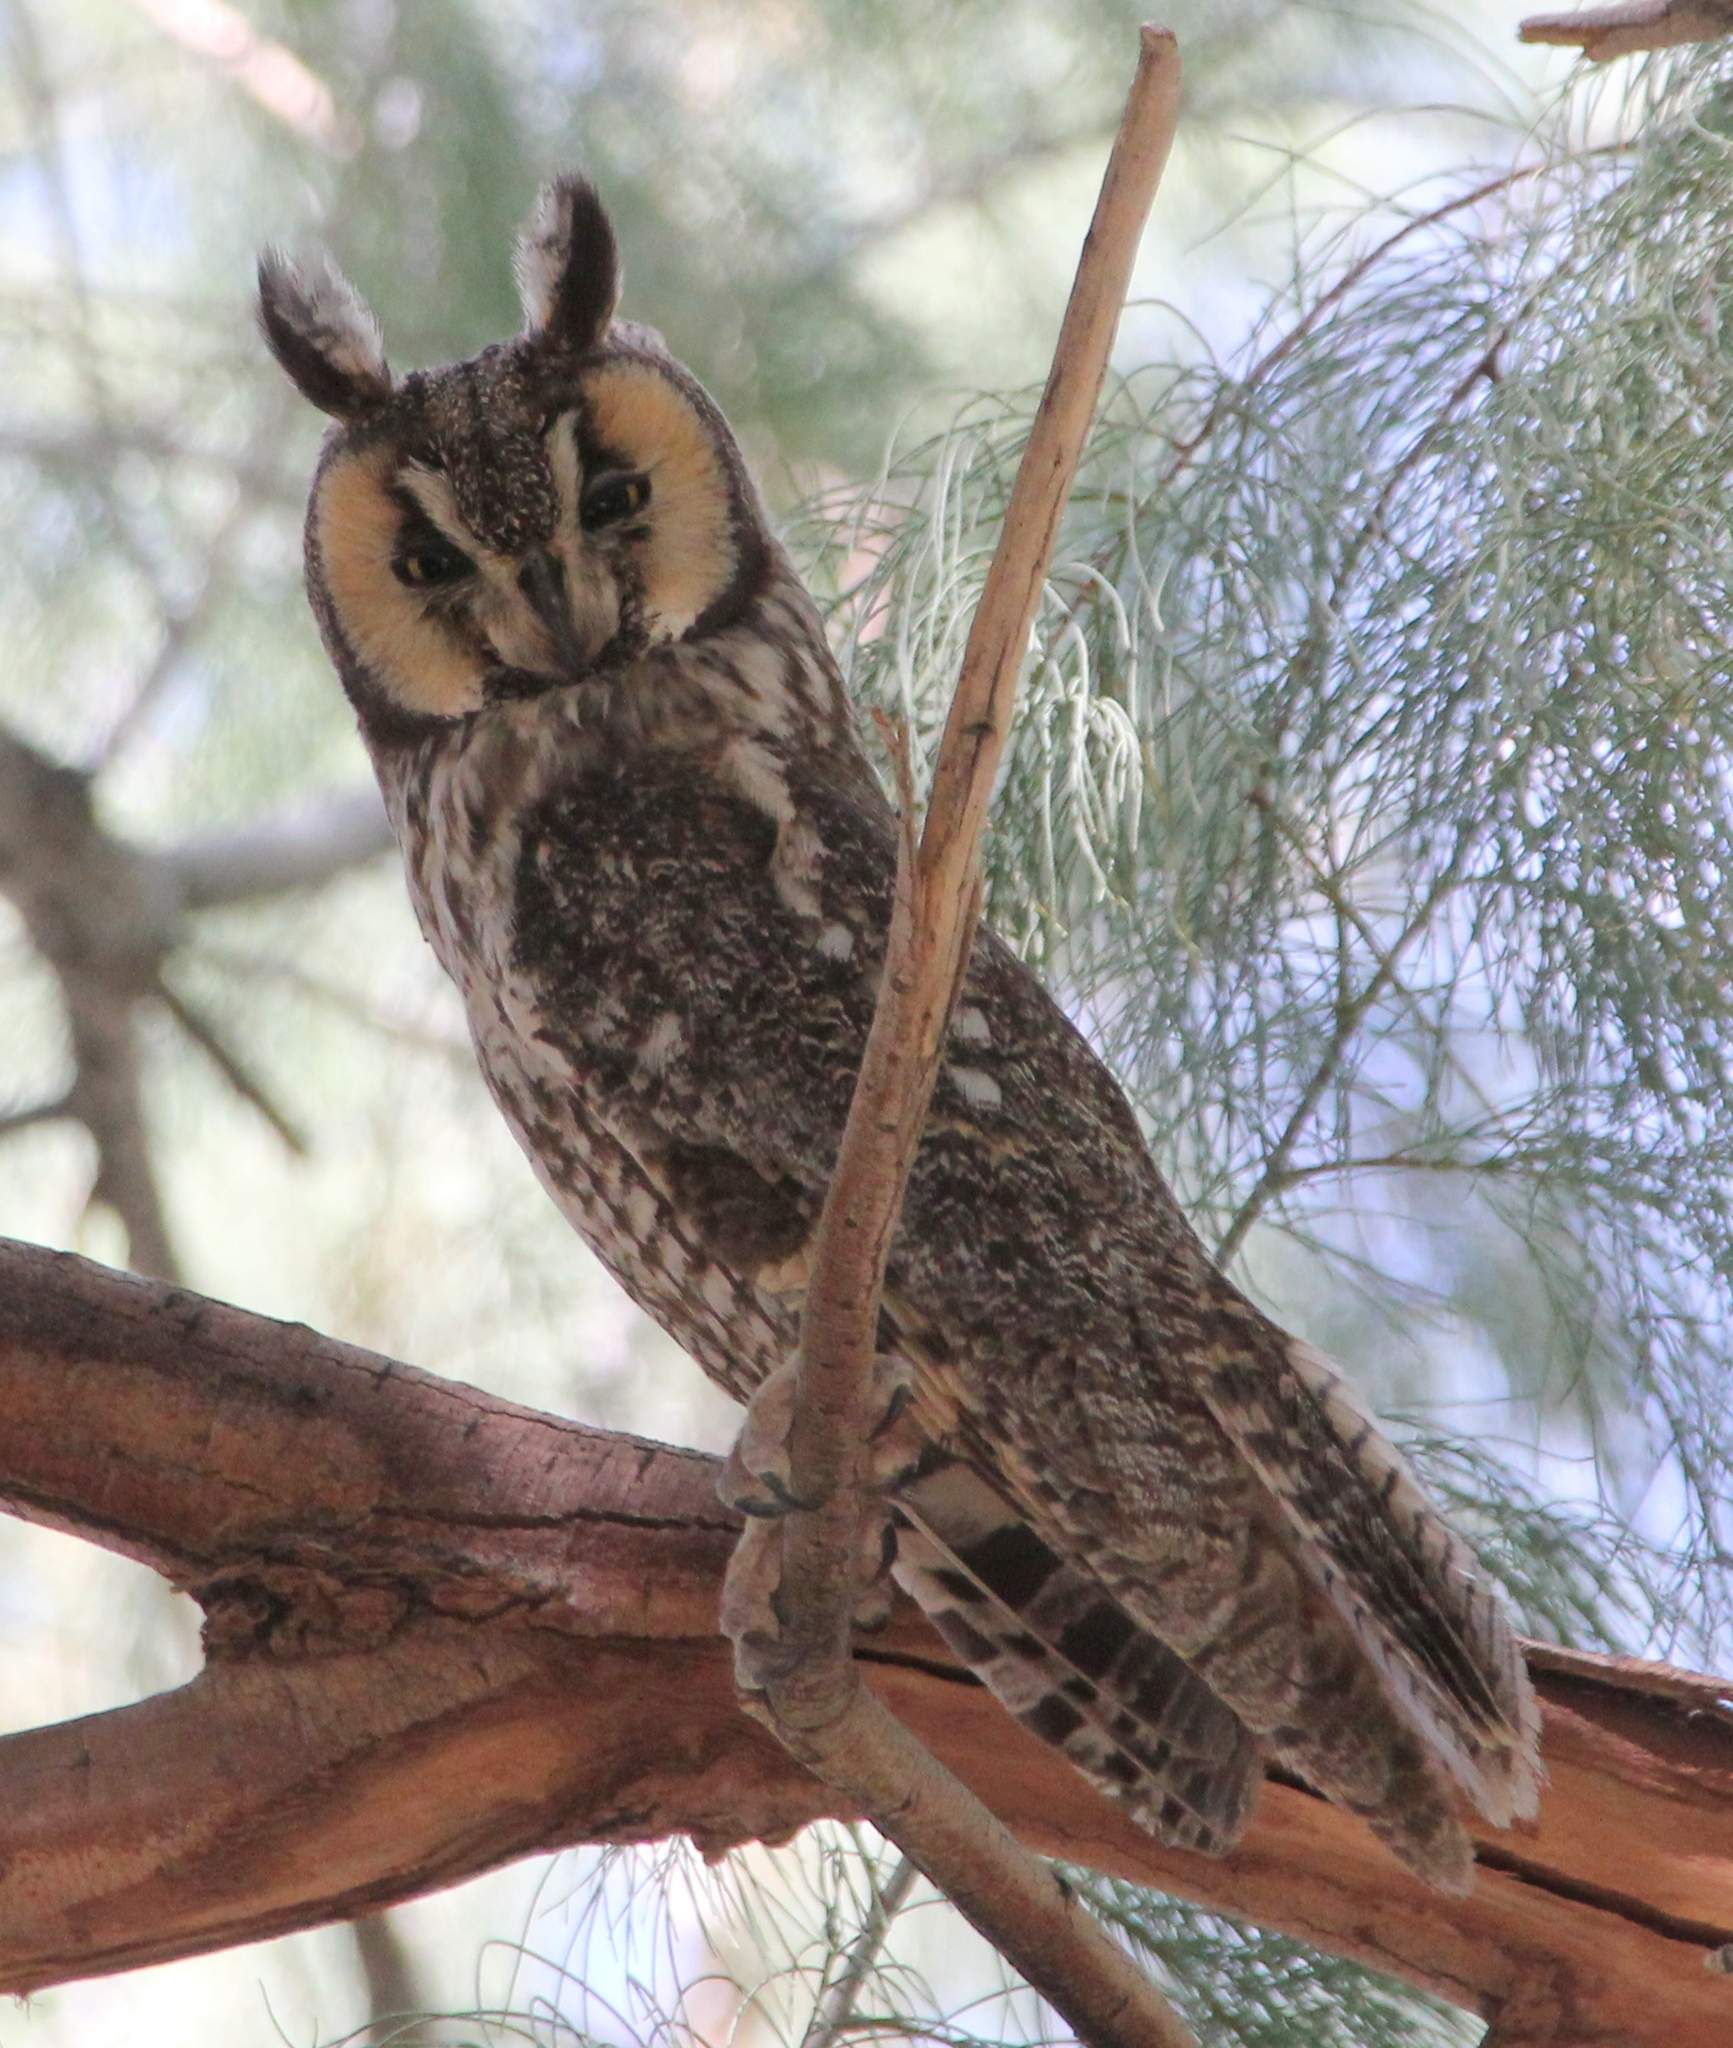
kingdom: Animalia
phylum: Chordata
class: Aves
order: Strigiformes
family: Strigidae
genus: Asio
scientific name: Asio otus
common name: Long-eared owl
